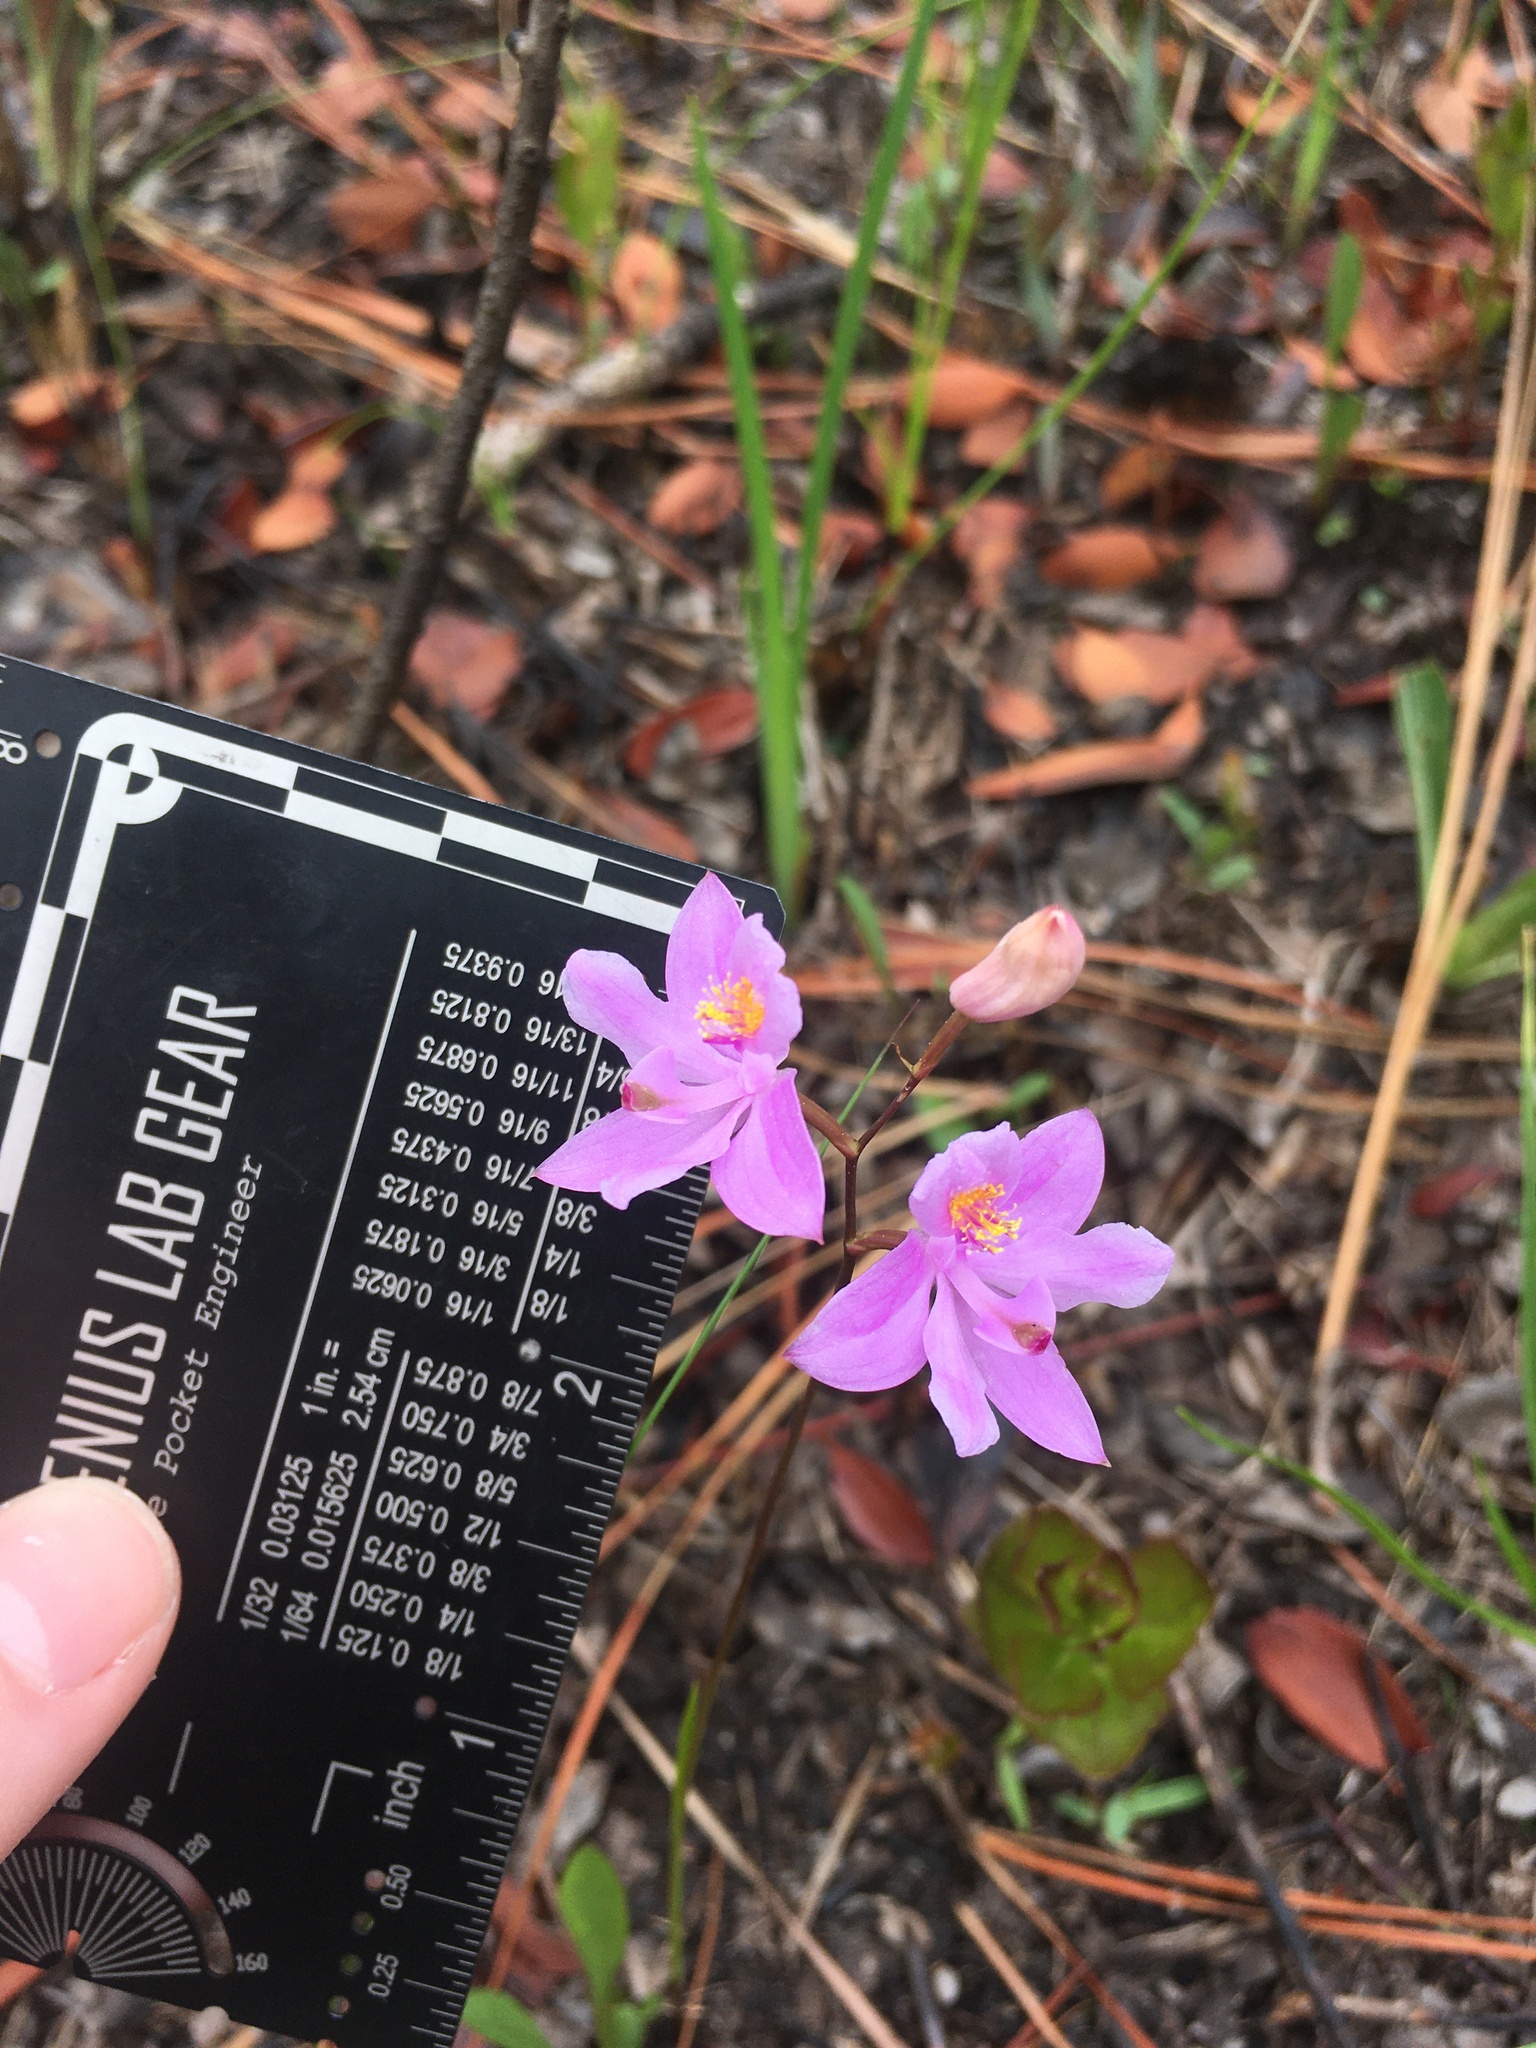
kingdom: Plantae
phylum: Tracheophyta
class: Liliopsida
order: Asparagales
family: Orchidaceae
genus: Calopogon
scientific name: Calopogon barbatus
